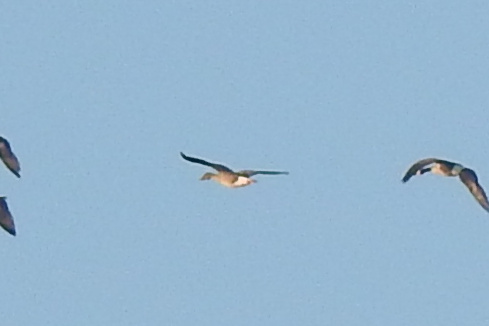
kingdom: Animalia
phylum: Chordata
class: Aves
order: Anseriformes
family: Anatidae
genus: Anser
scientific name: Anser serrirostris
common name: Tundra bean goose
